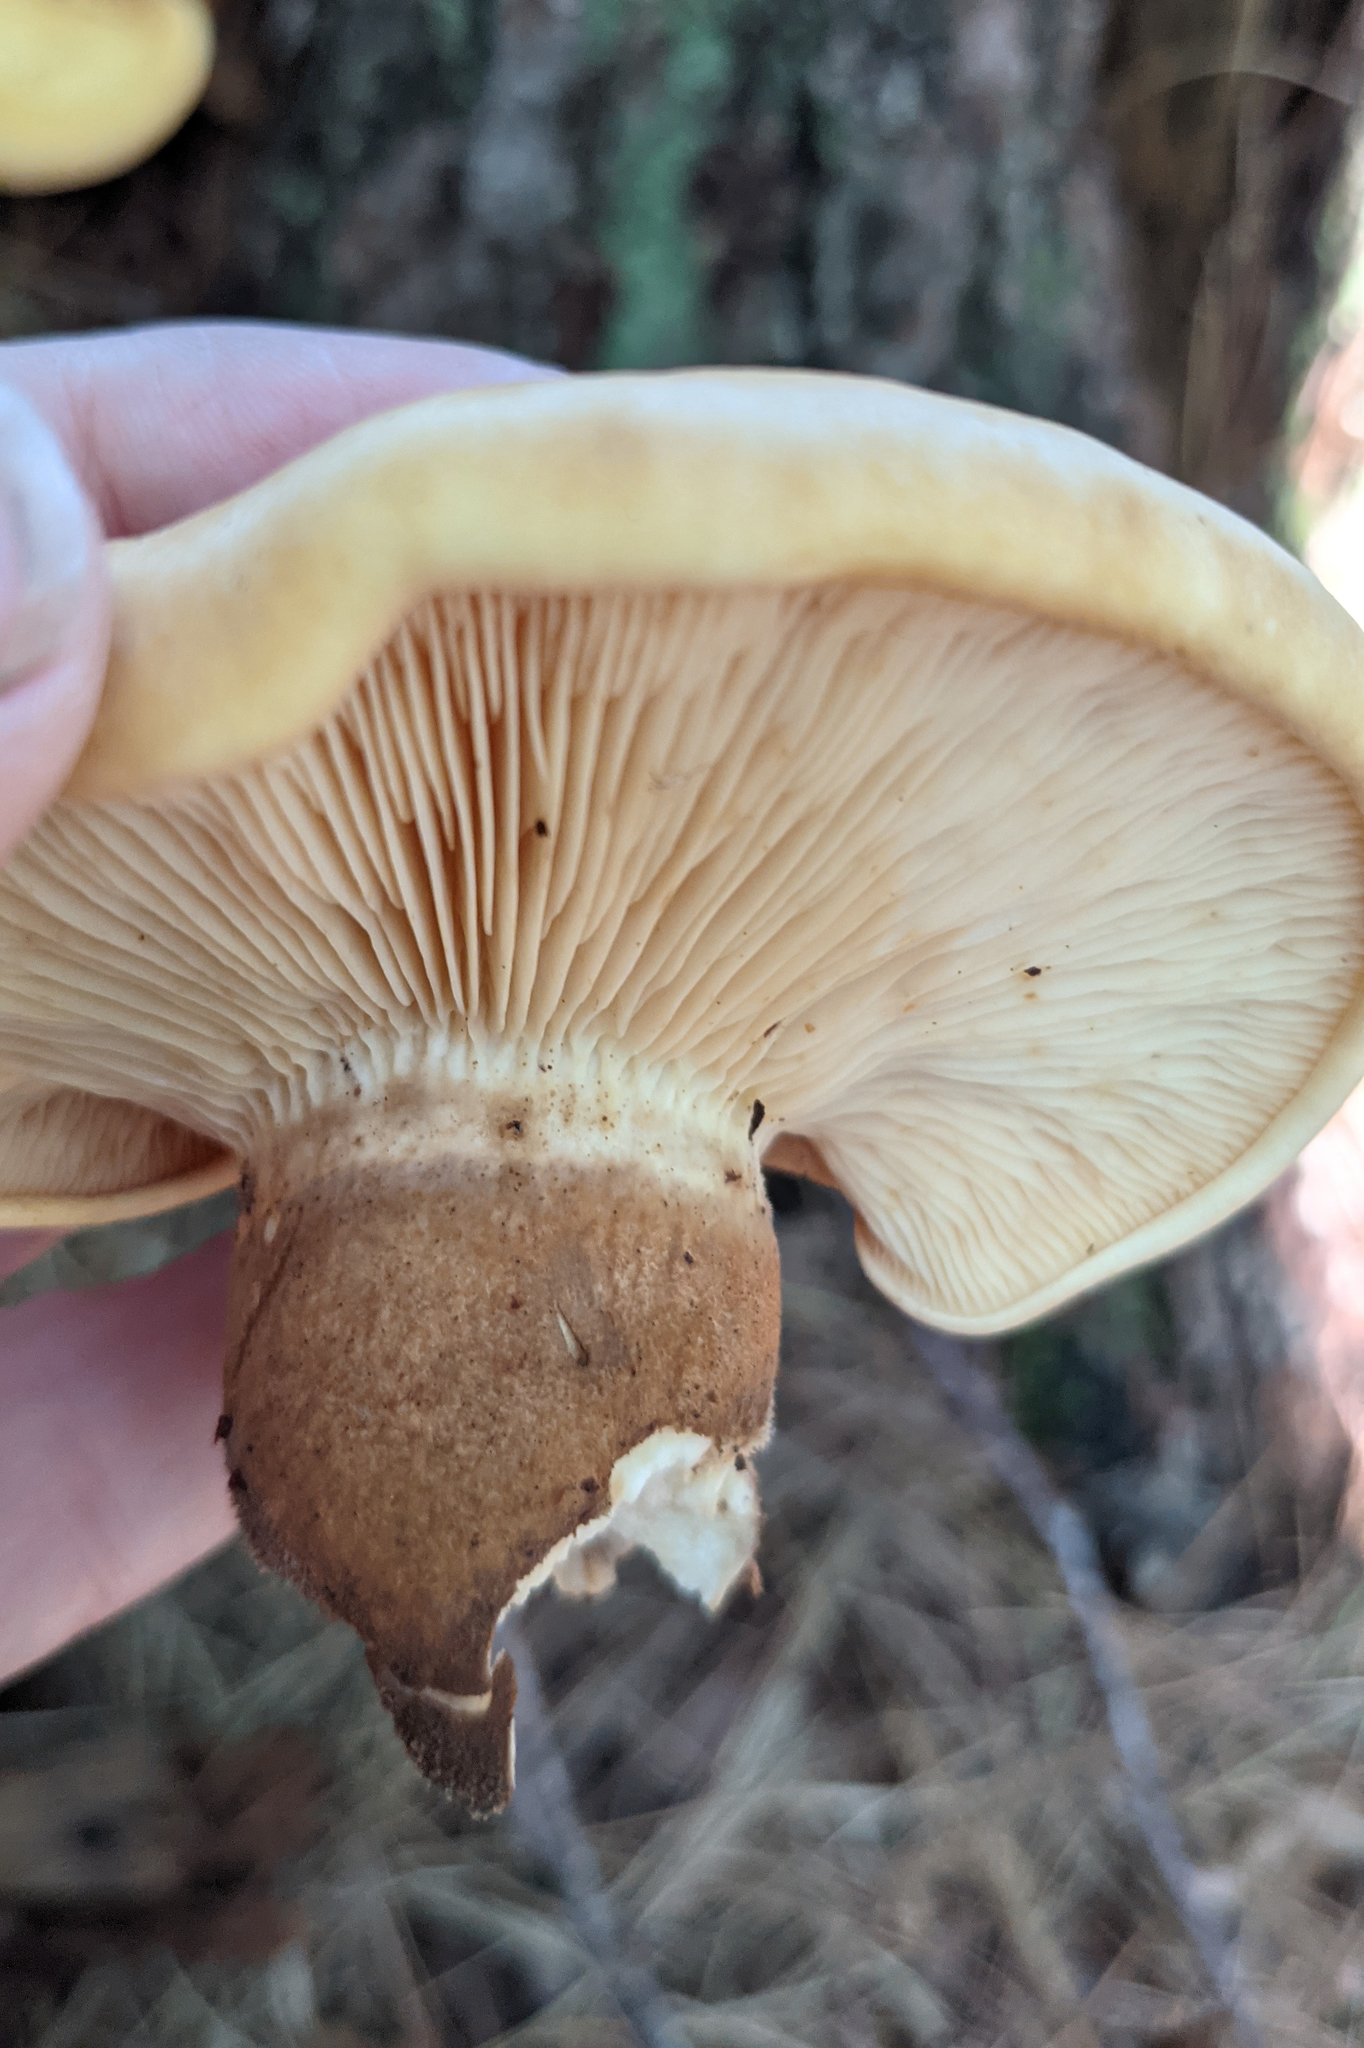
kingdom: Fungi
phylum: Basidiomycota
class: Agaricomycetes
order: Boletales
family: Tapinellaceae
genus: Tapinella
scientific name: Tapinella atrotomentosa
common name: Velvet rollrim
